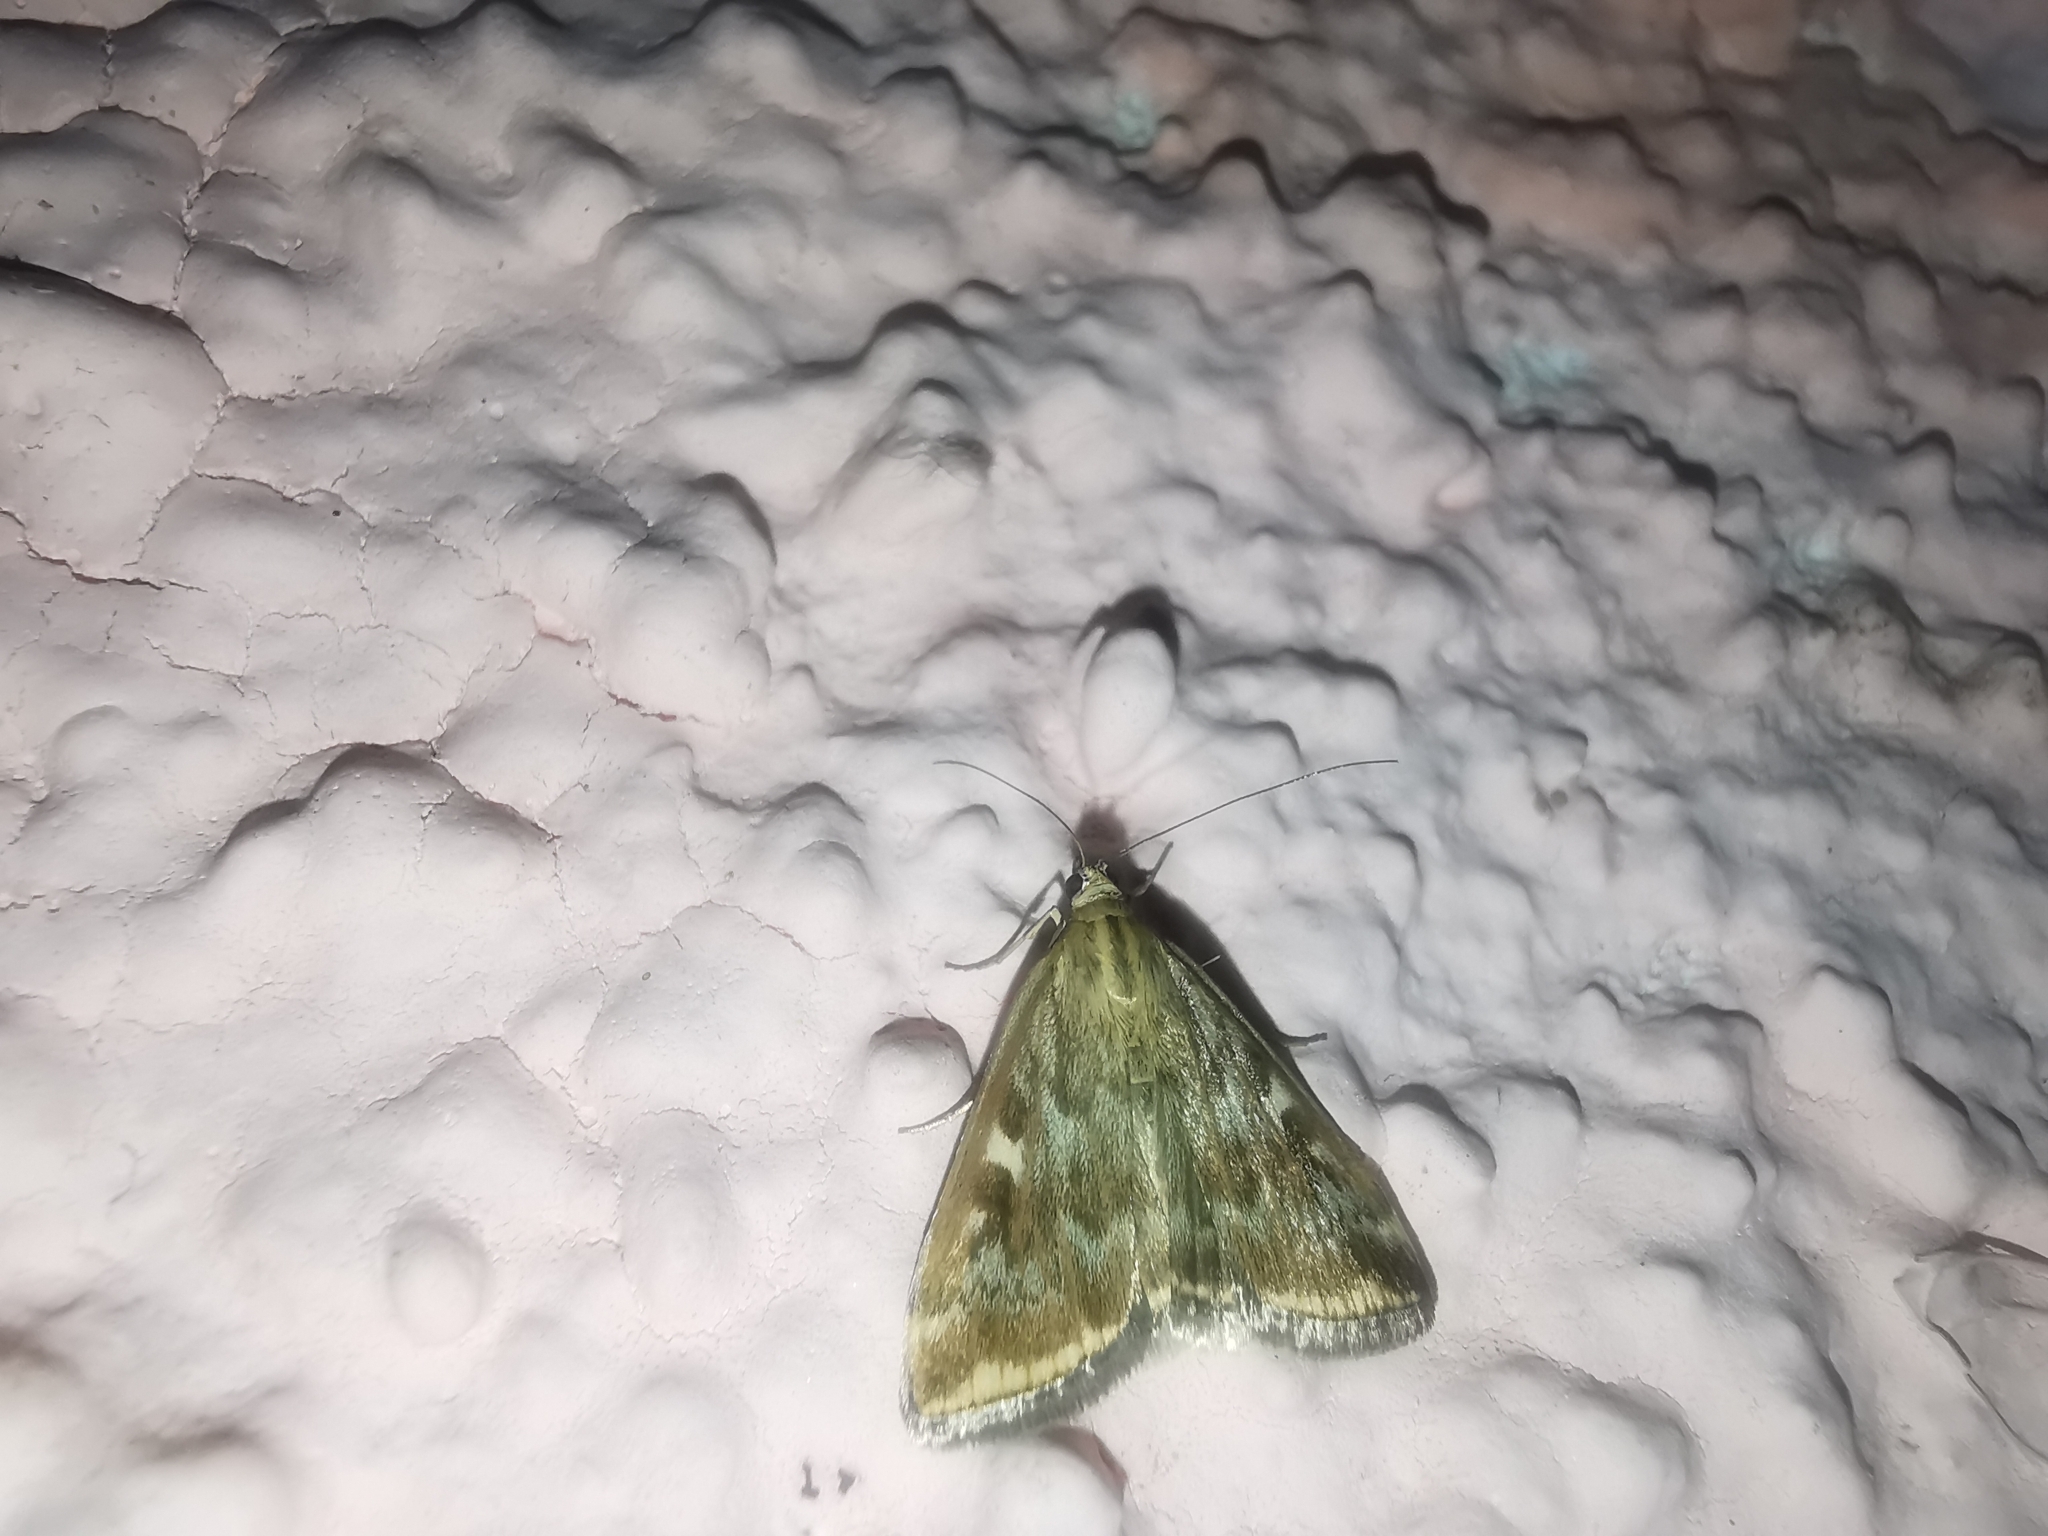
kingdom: Animalia
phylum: Arthropoda
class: Insecta
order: Lepidoptera
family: Crambidae
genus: Loxostege
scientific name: Loxostege sticticalis
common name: Crambid moth
